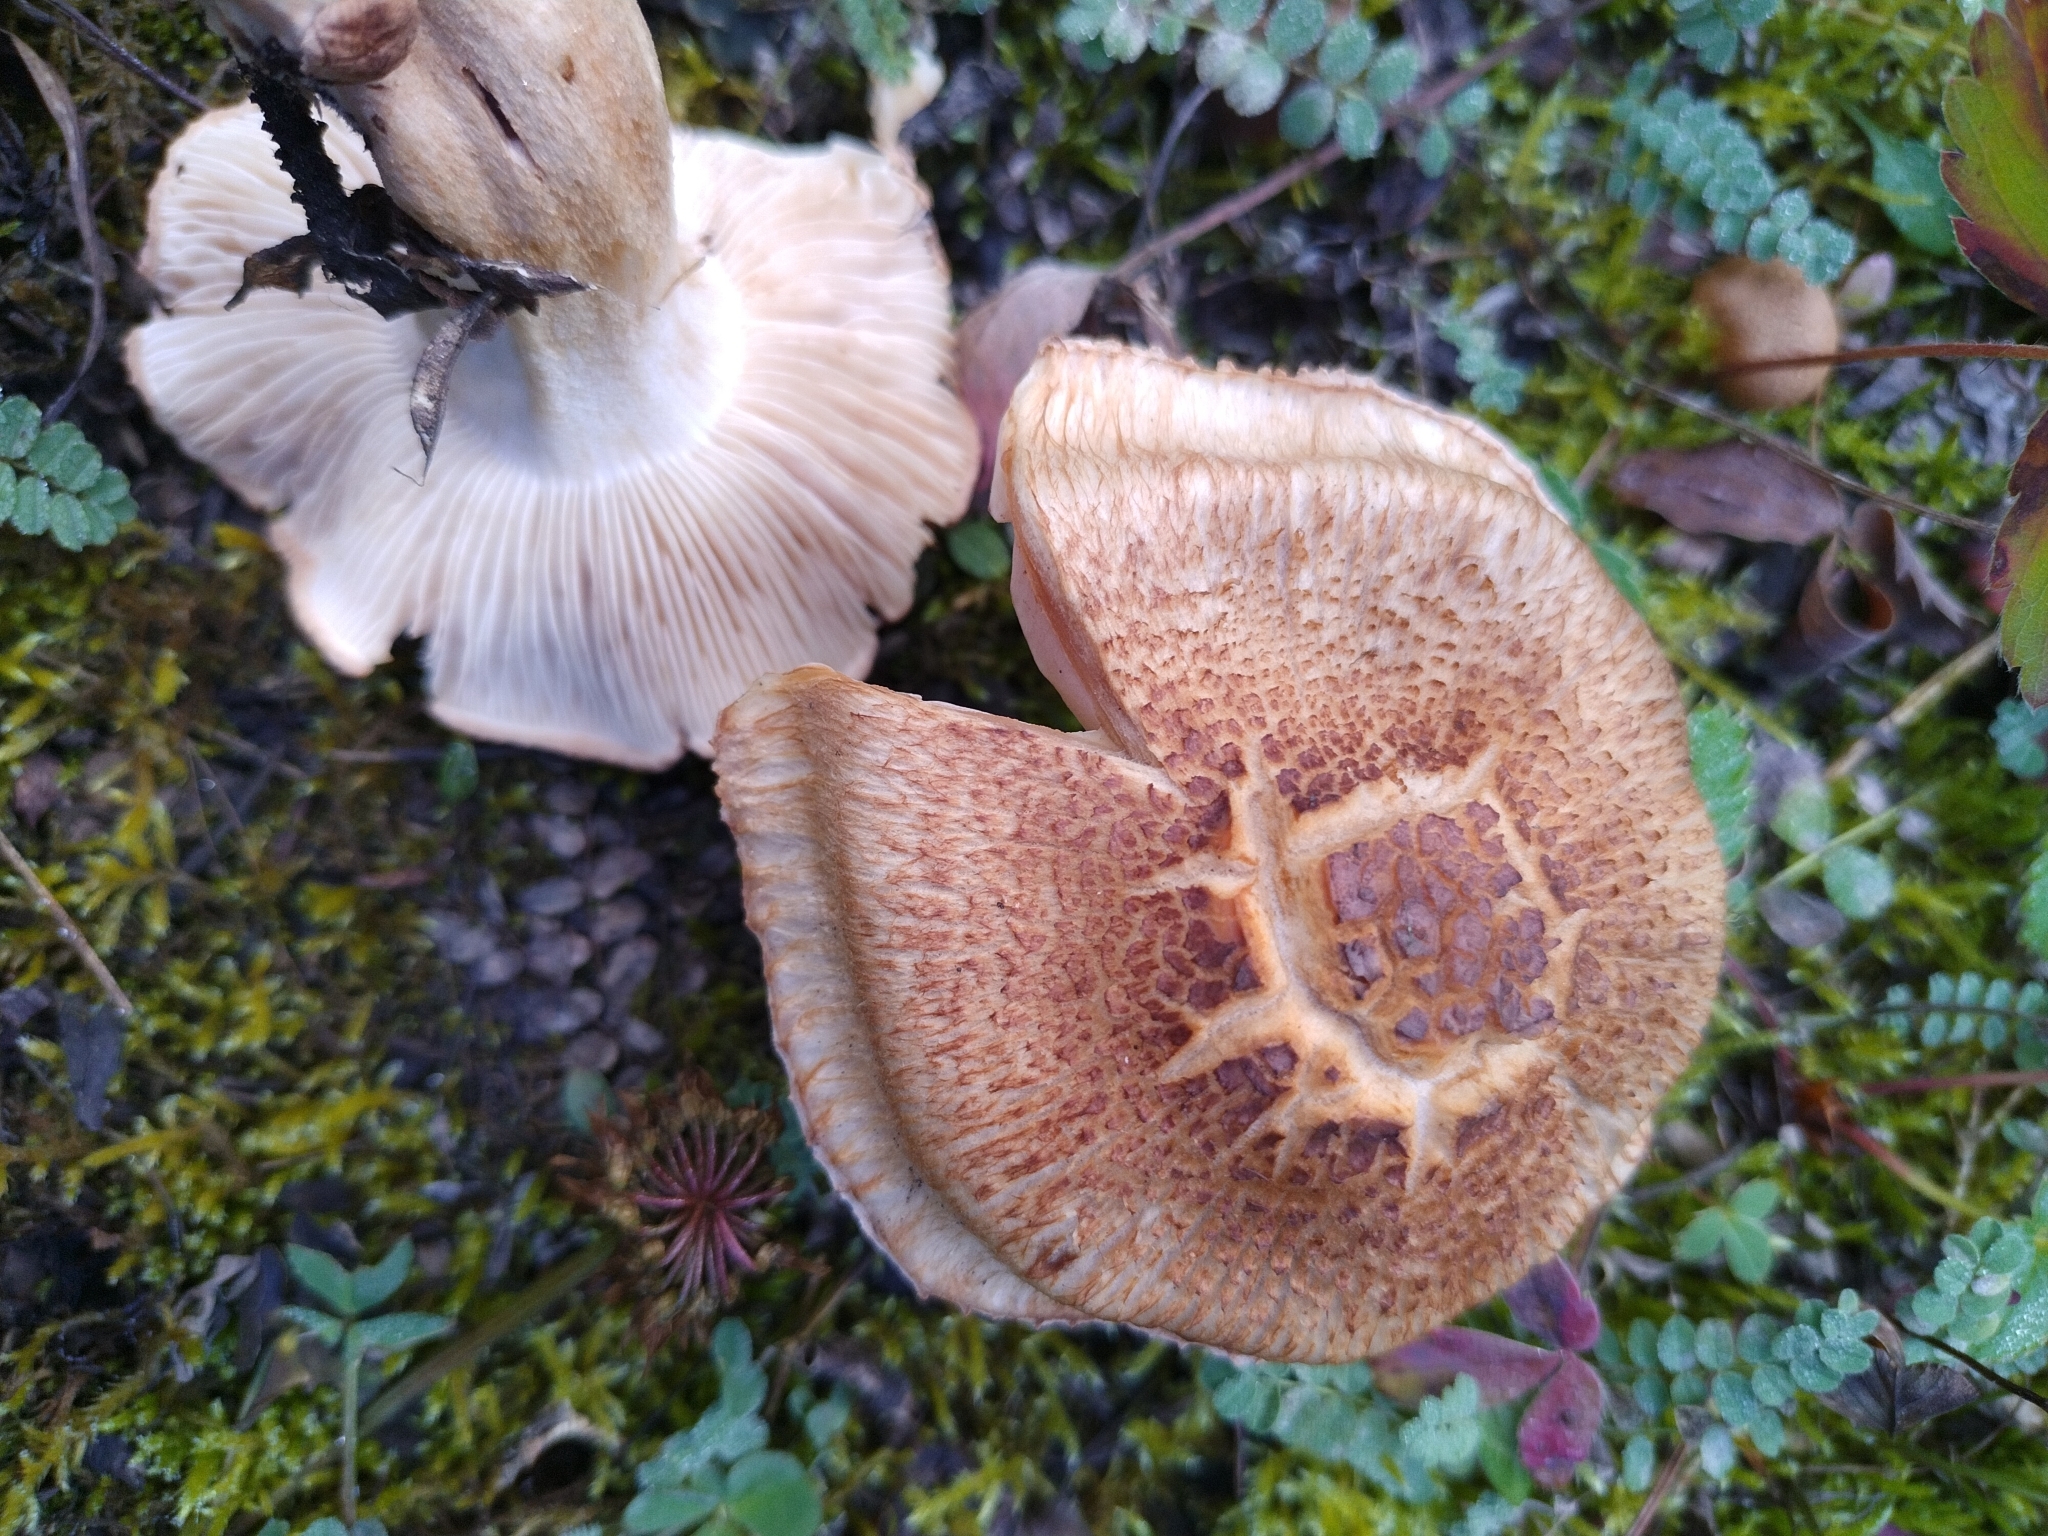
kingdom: Fungi
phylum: Basidiomycota
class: Agaricomycetes
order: Agaricales
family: Tricholomataceae
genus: Tricholoma
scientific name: Tricholoma vaccinum
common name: Scaly knight
